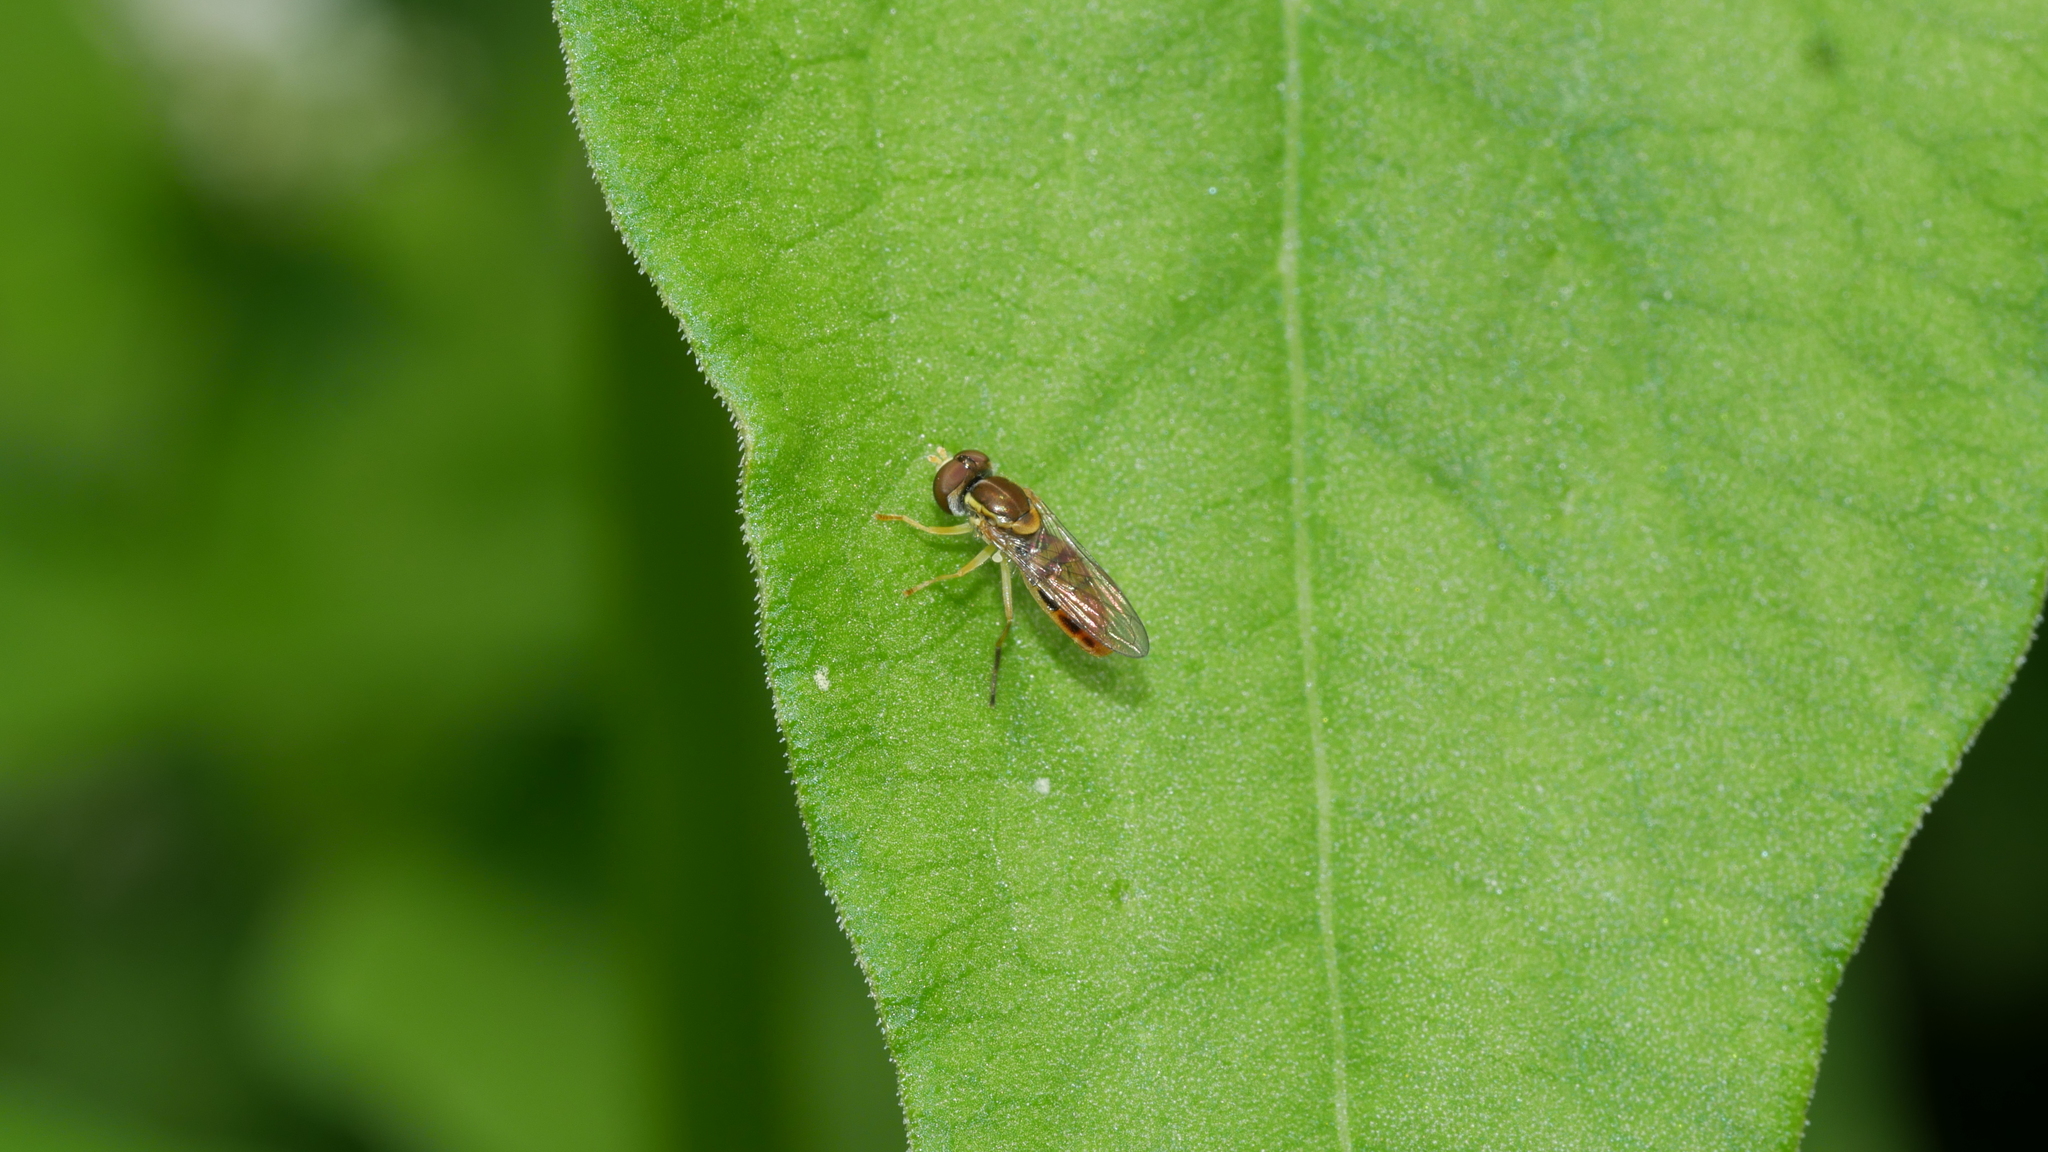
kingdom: Animalia
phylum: Arthropoda
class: Insecta
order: Diptera
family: Syrphidae
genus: Toxomerus
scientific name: Toxomerus marginatus
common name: Syrphid fly
